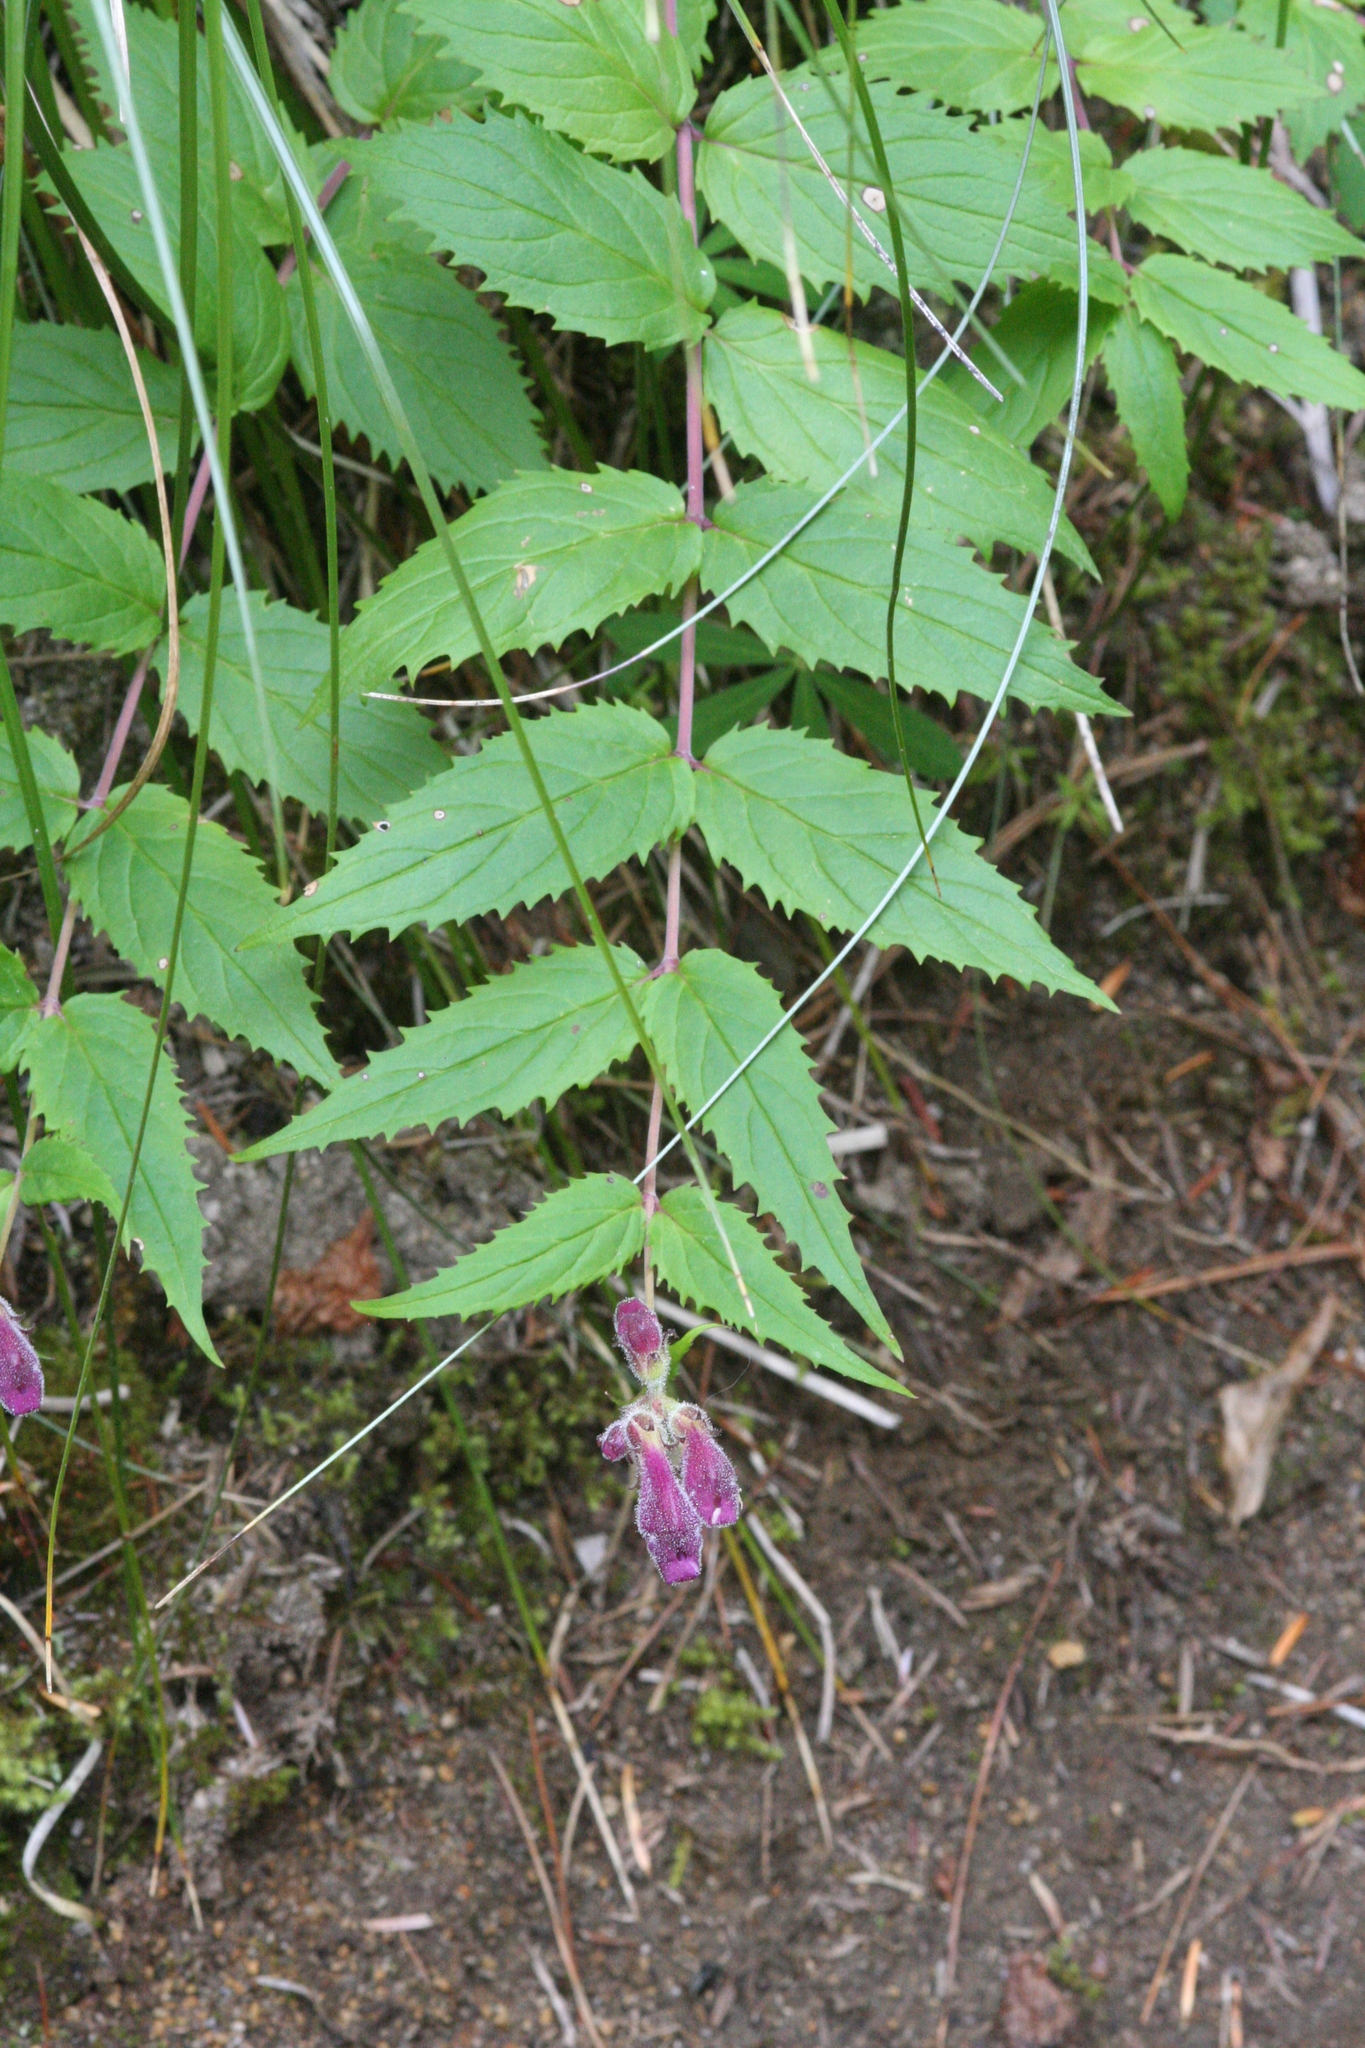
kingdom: Plantae
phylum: Tracheophyta
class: Magnoliopsida
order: Lamiales
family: Plantaginaceae
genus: Nothochelone
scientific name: Nothochelone nemorosa
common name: Woodland beardtongue
